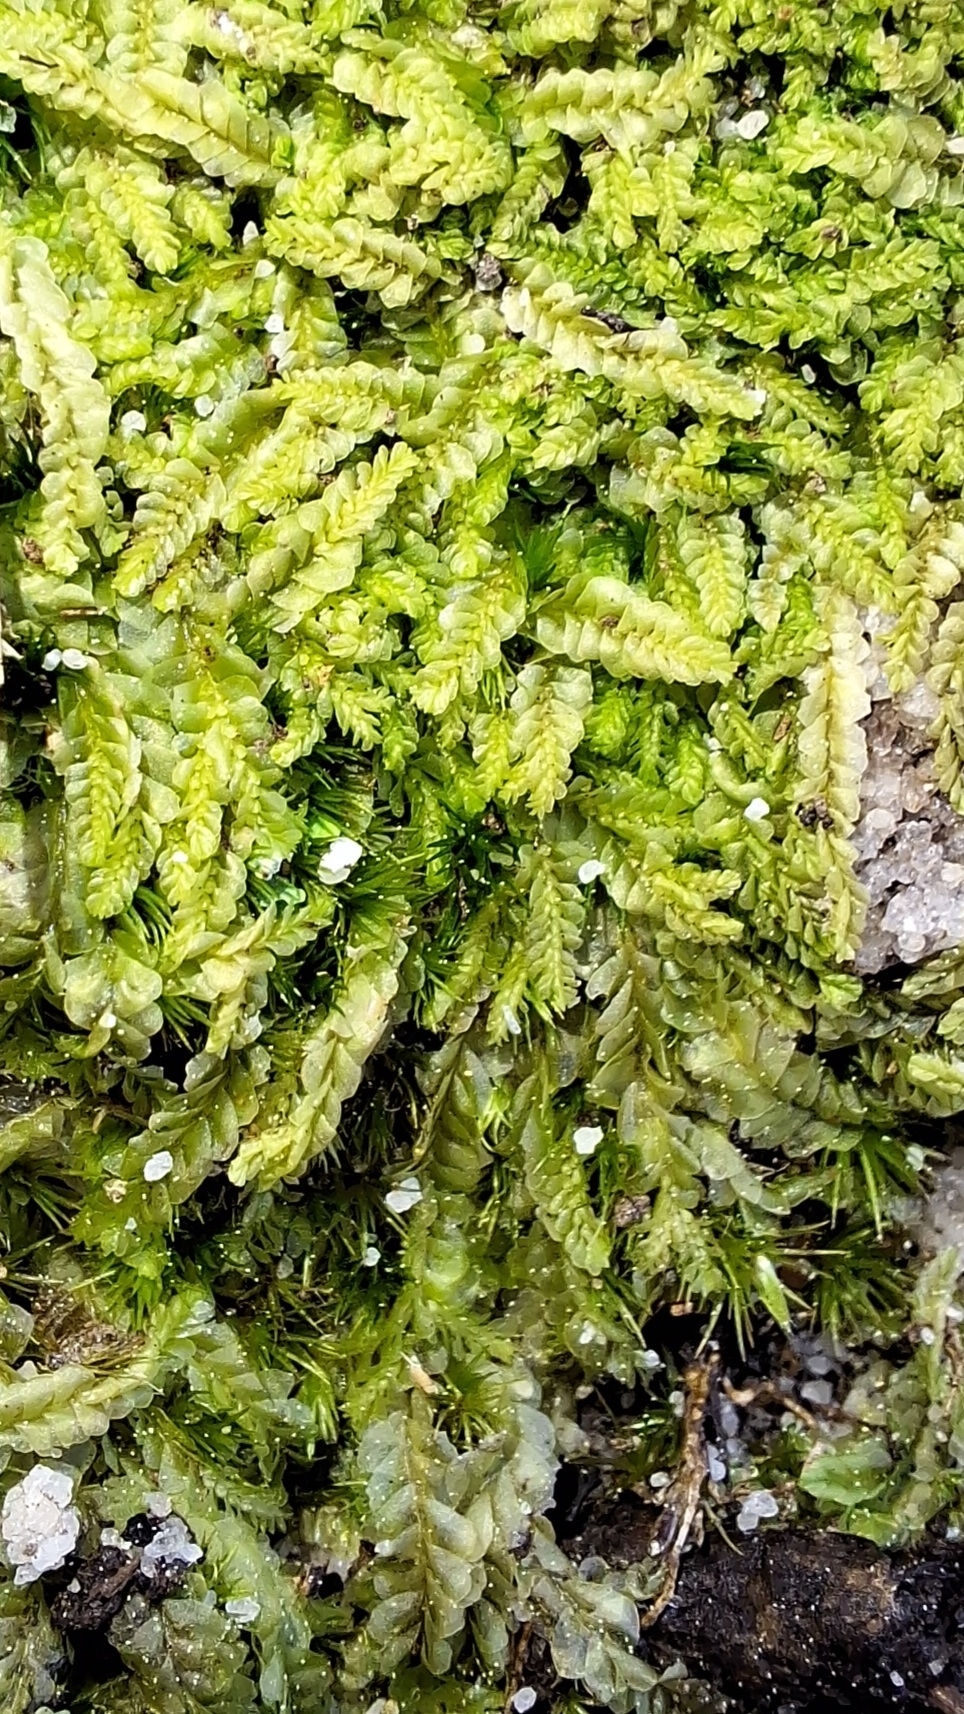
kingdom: Plantae
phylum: Marchantiophyta
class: Jungermanniopsida
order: Jungermanniales
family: Lophocoleaceae
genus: Lophocolea
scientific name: Lophocolea semiteres
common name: Southern crestwort
